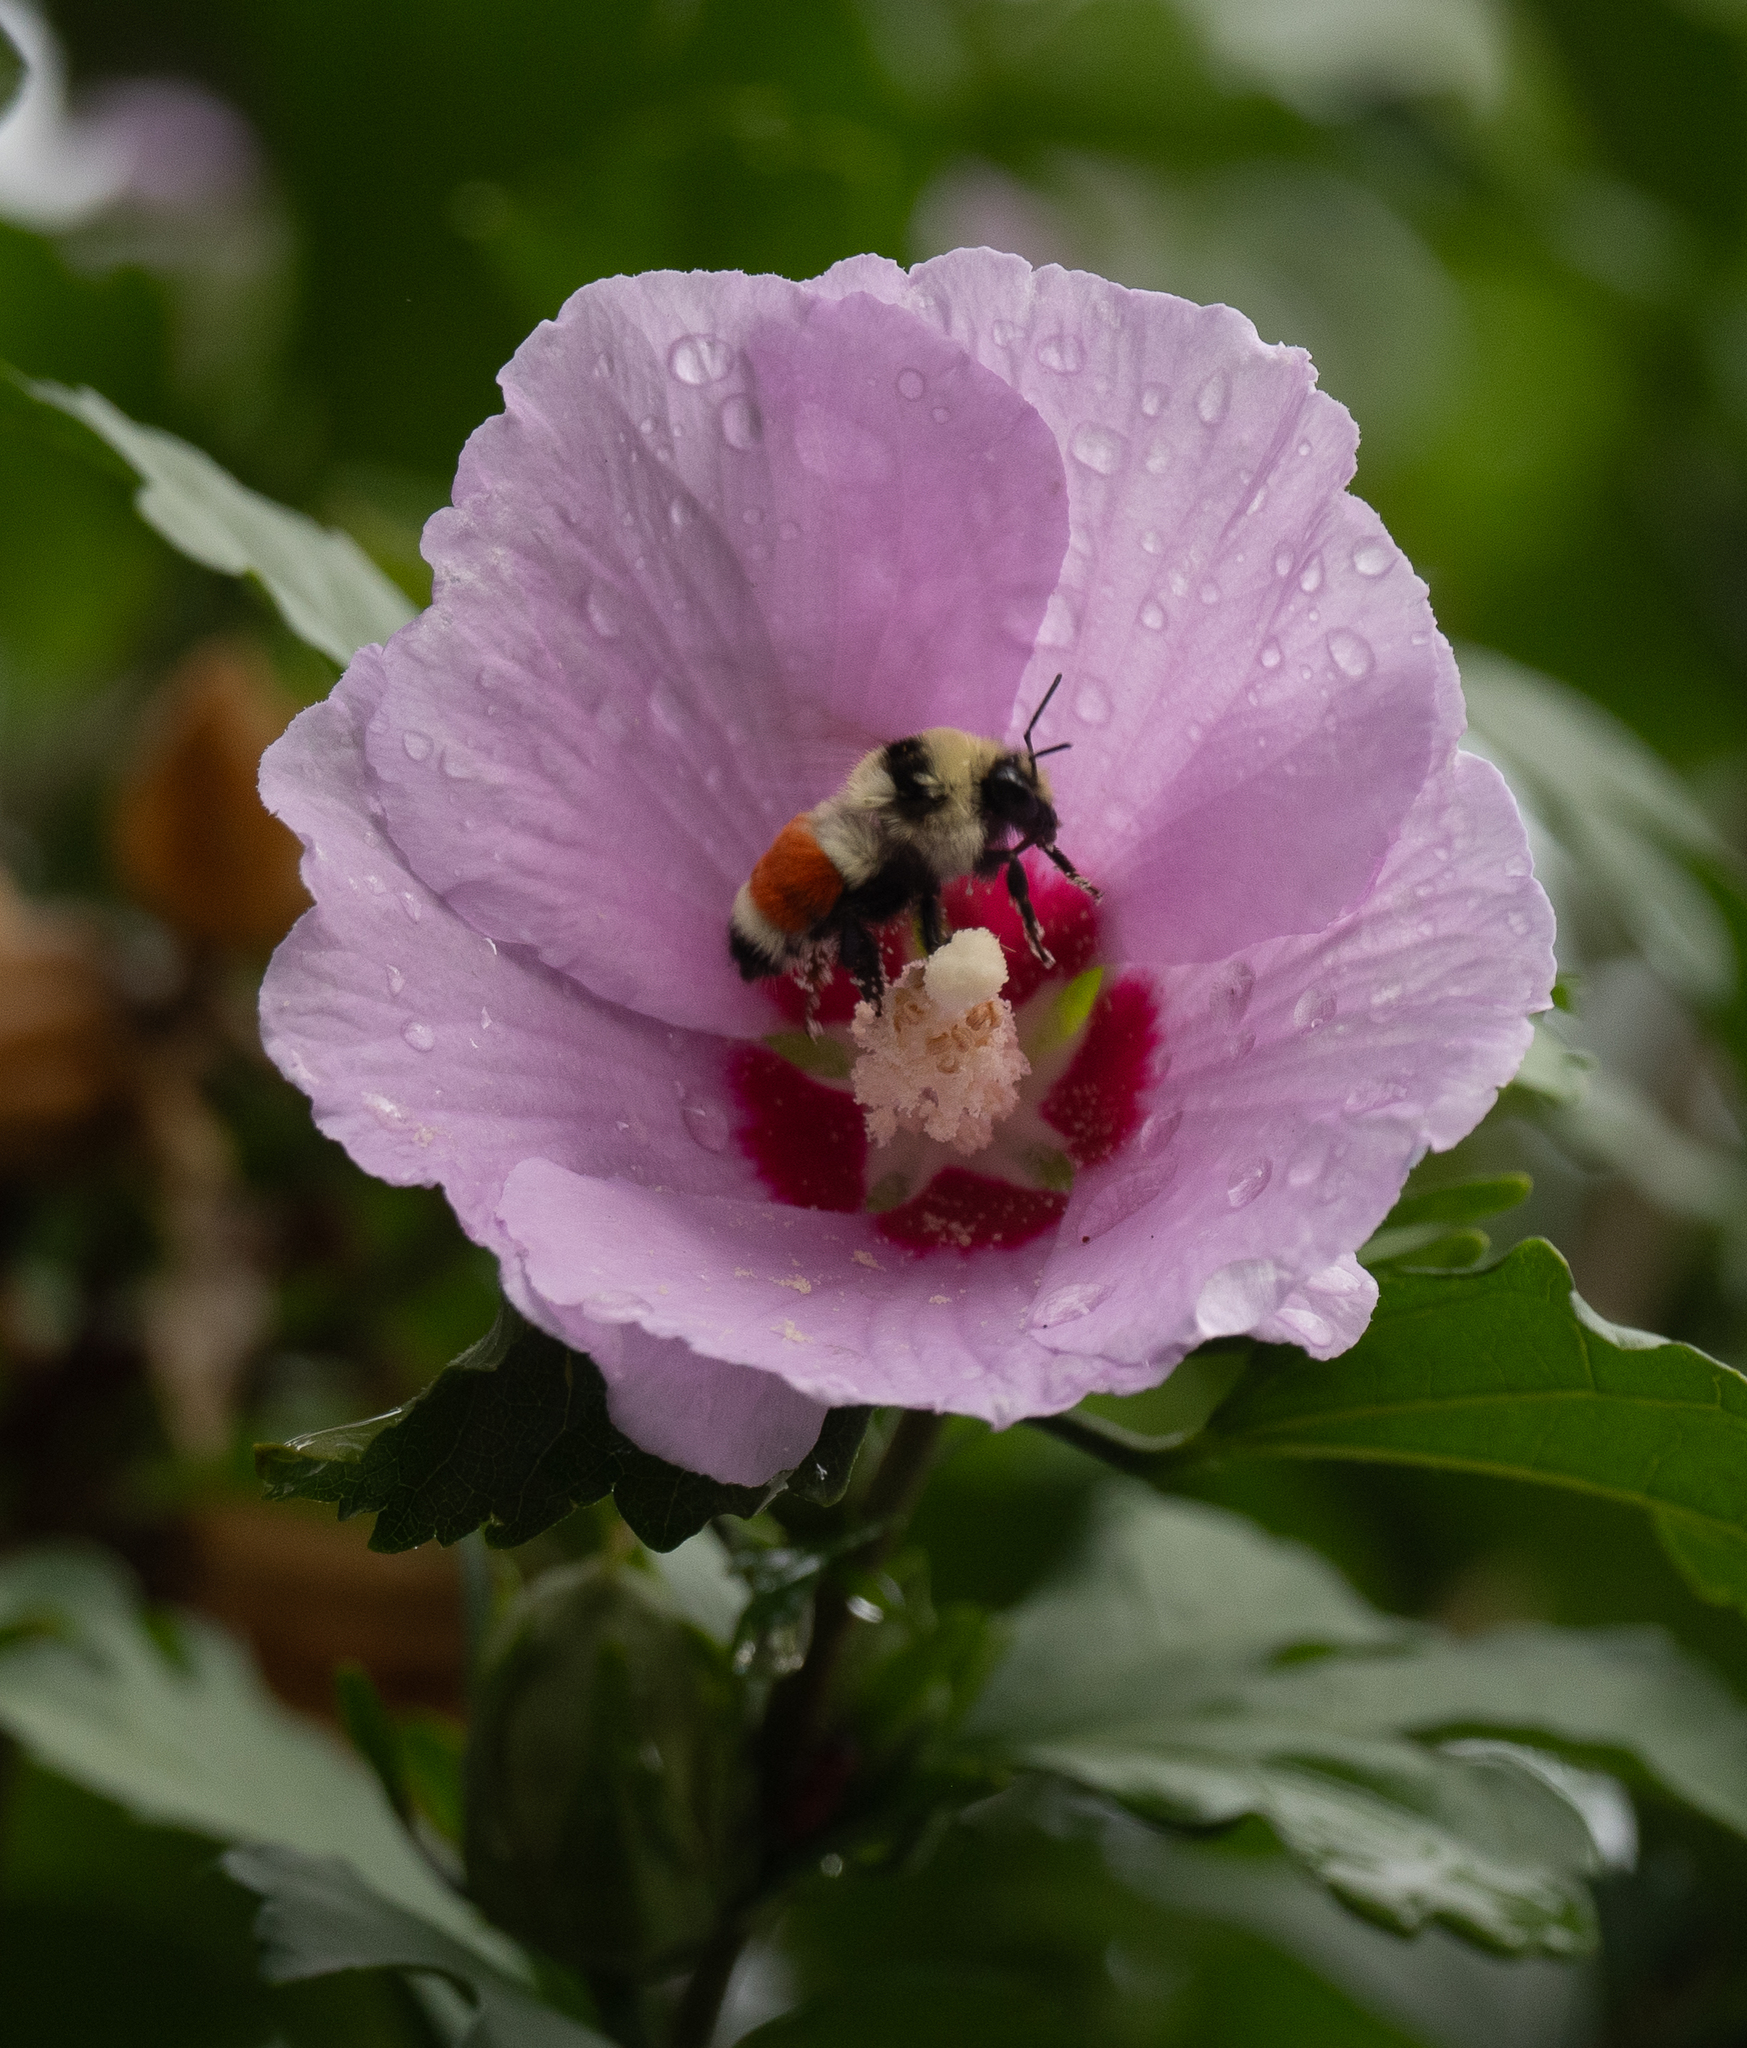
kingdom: Animalia
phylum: Arthropoda
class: Insecta
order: Hymenoptera
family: Apidae
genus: Bombus
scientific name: Bombus huntii
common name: Hunt bumble bee
